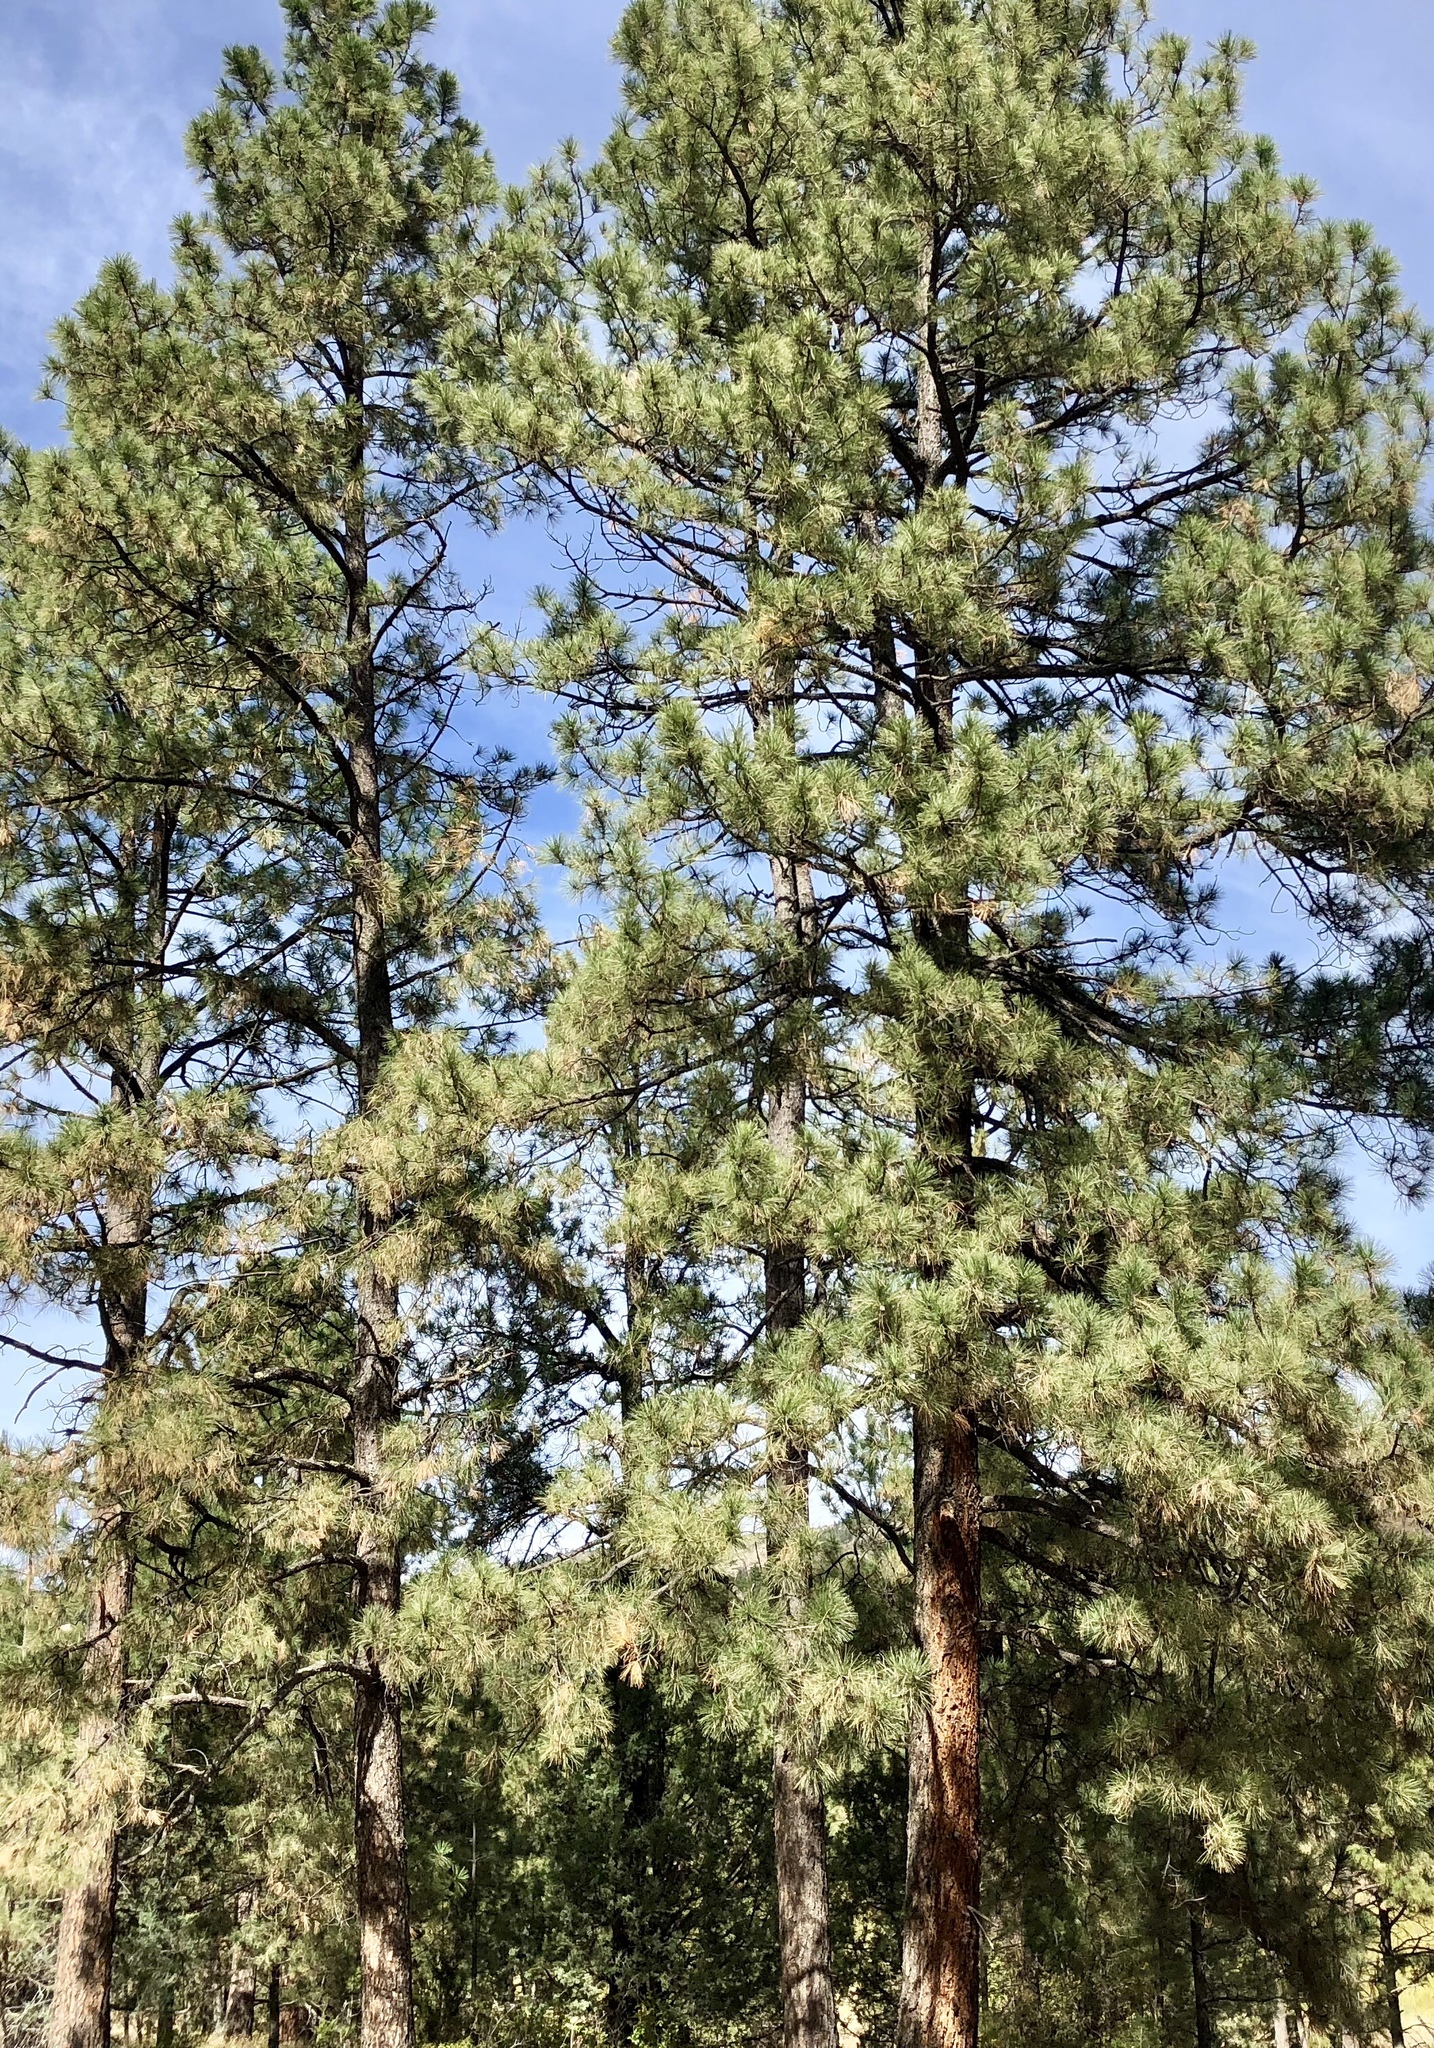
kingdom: Plantae
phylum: Tracheophyta
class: Pinopsida
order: Pinales
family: Pinaceae
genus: Pinus
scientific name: Pinus ponderosa
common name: Western yellow-pine
